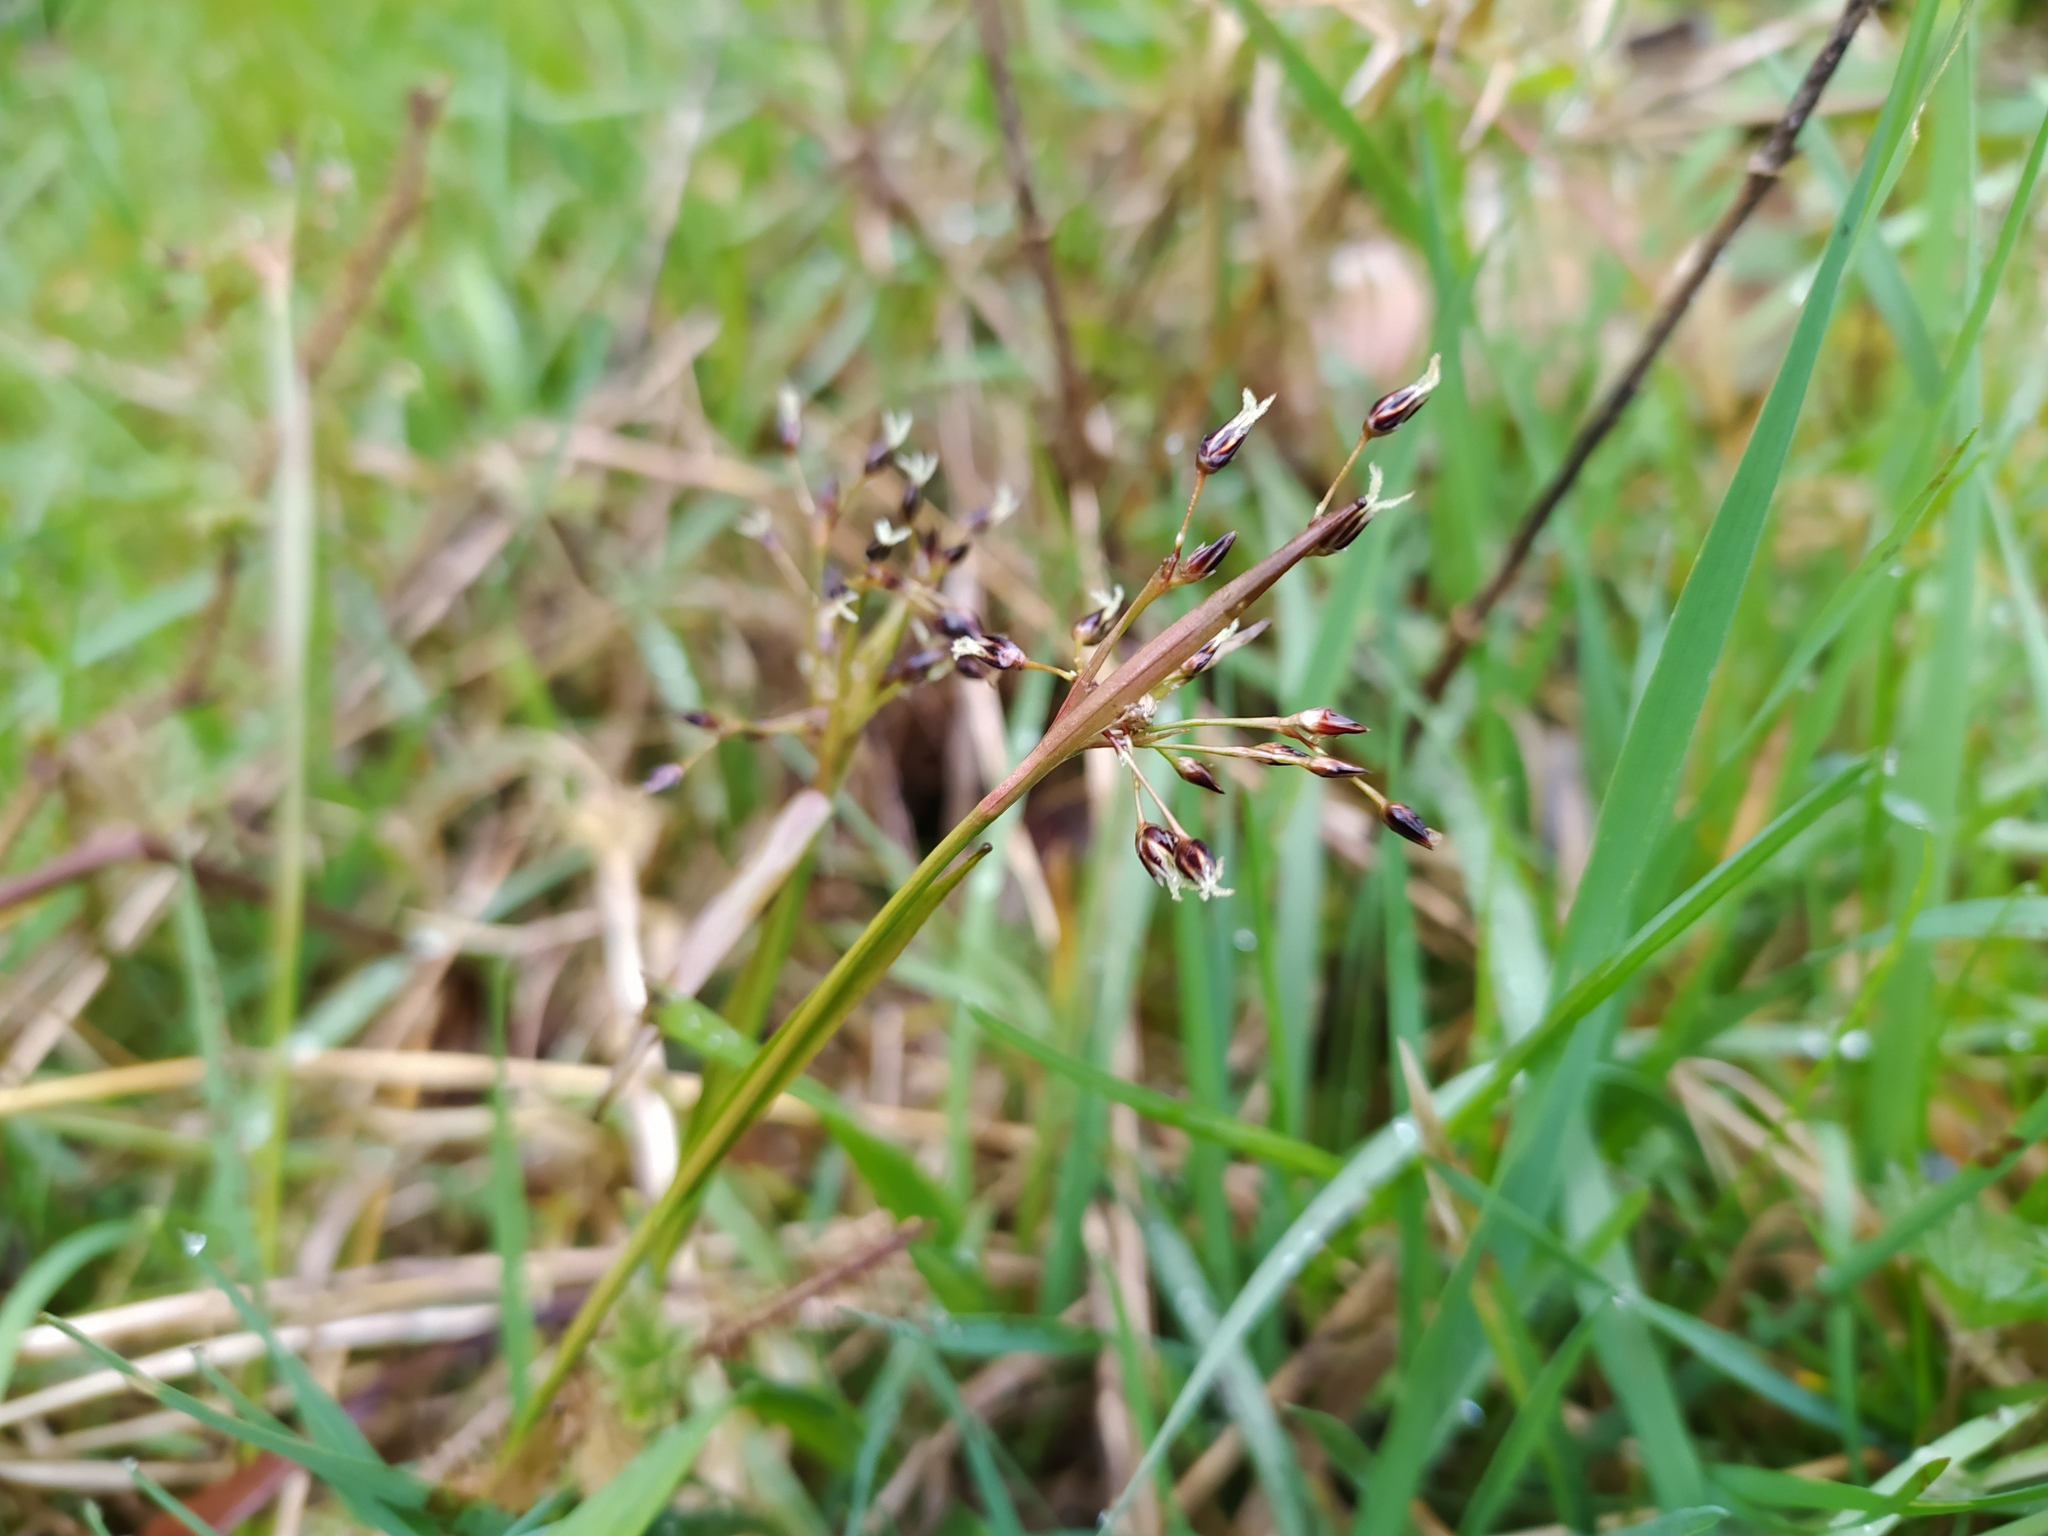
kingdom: Plantae
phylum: Tracheophyta
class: Liliopsida
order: Poales
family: Juncaceae
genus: Luzula
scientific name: Luzula pilosa
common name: Hairy wood-rush
